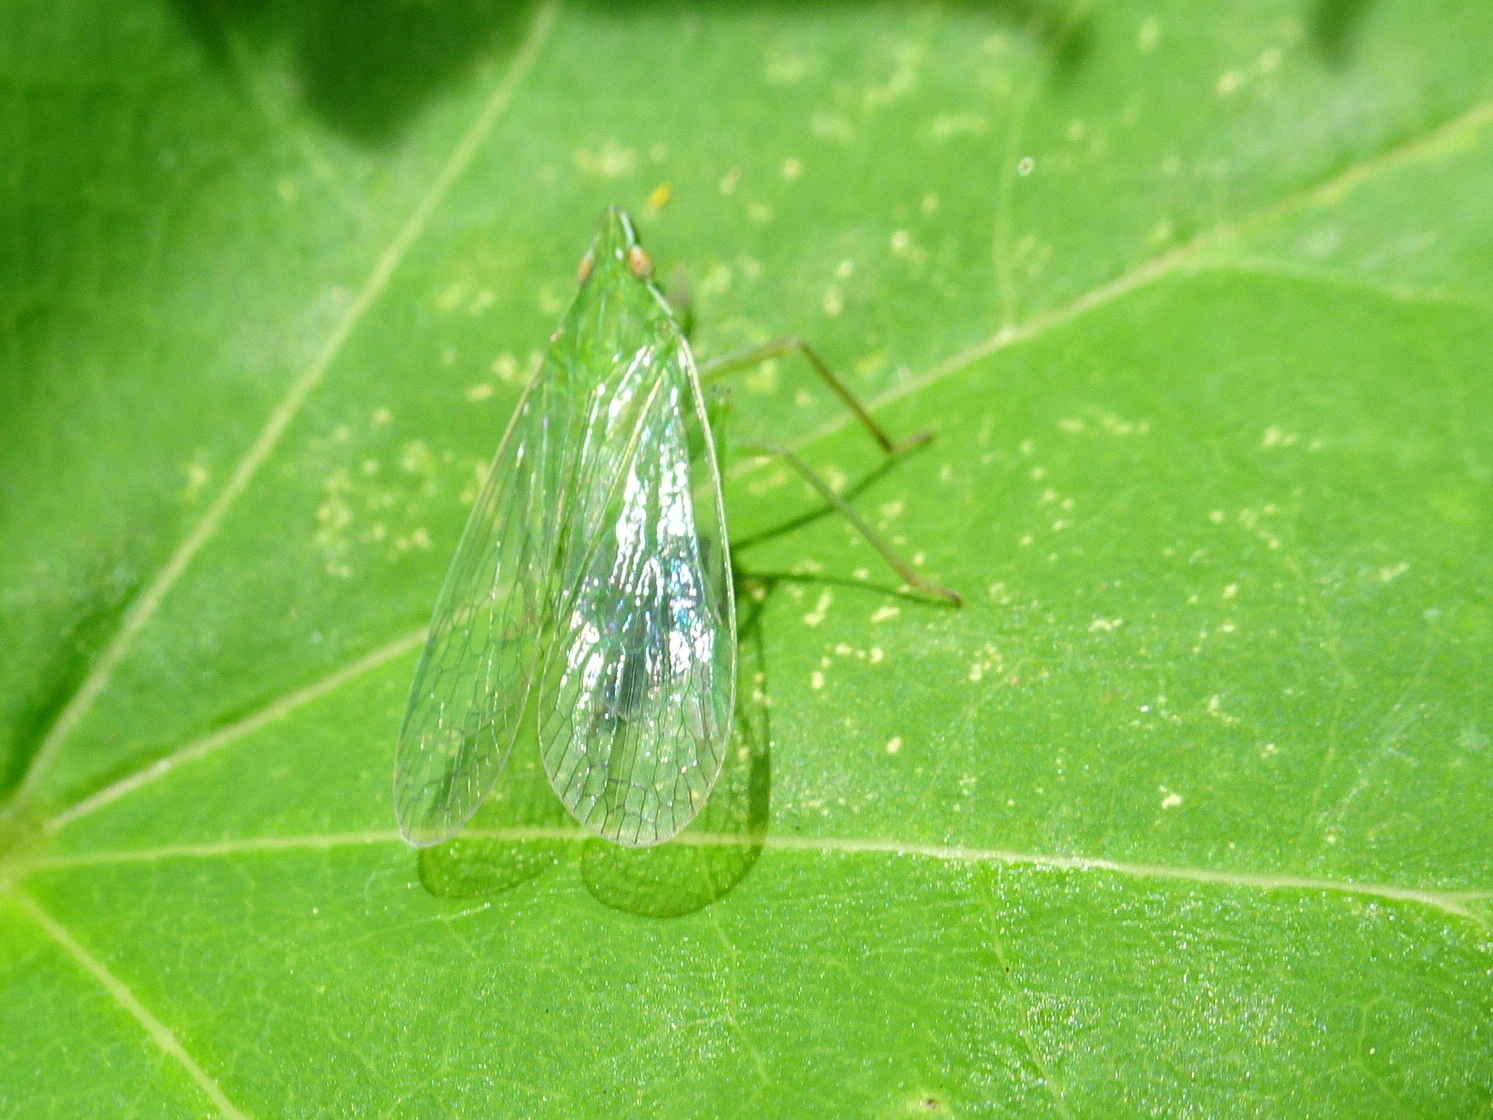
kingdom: Animalia
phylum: Arthropoda
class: Insecta
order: Hemiptera
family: Dictyopharidae
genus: Nersia
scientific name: Nersia florida
